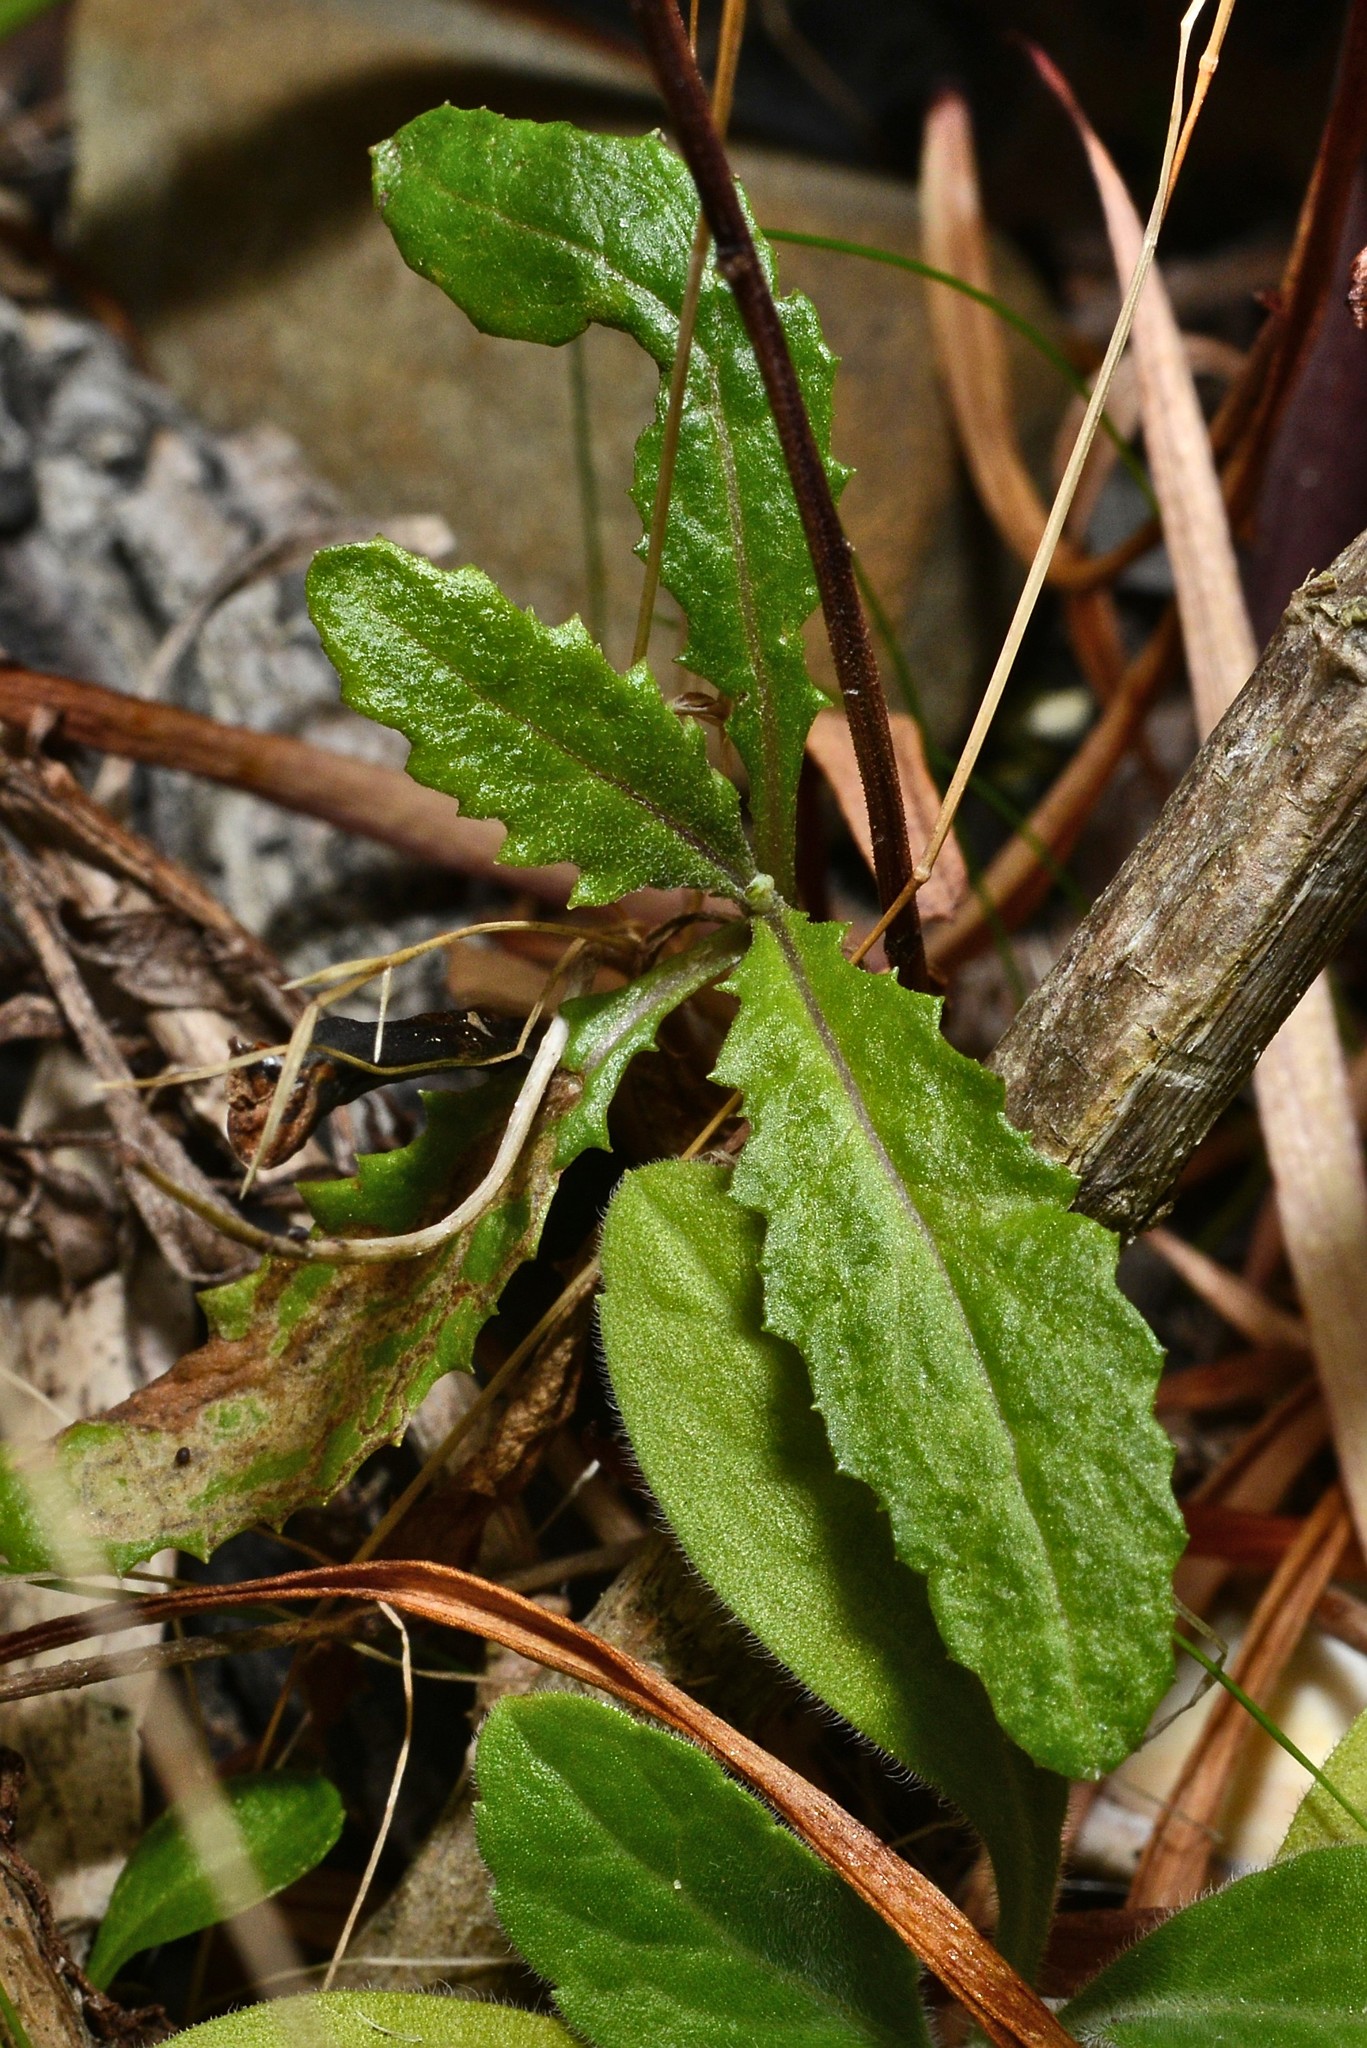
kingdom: Plantae
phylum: Tracheophyta
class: Magnoliopsida
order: Asterales
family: Asteraceae
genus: Senecio
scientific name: Senecio minimus
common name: Toothed fireweed
